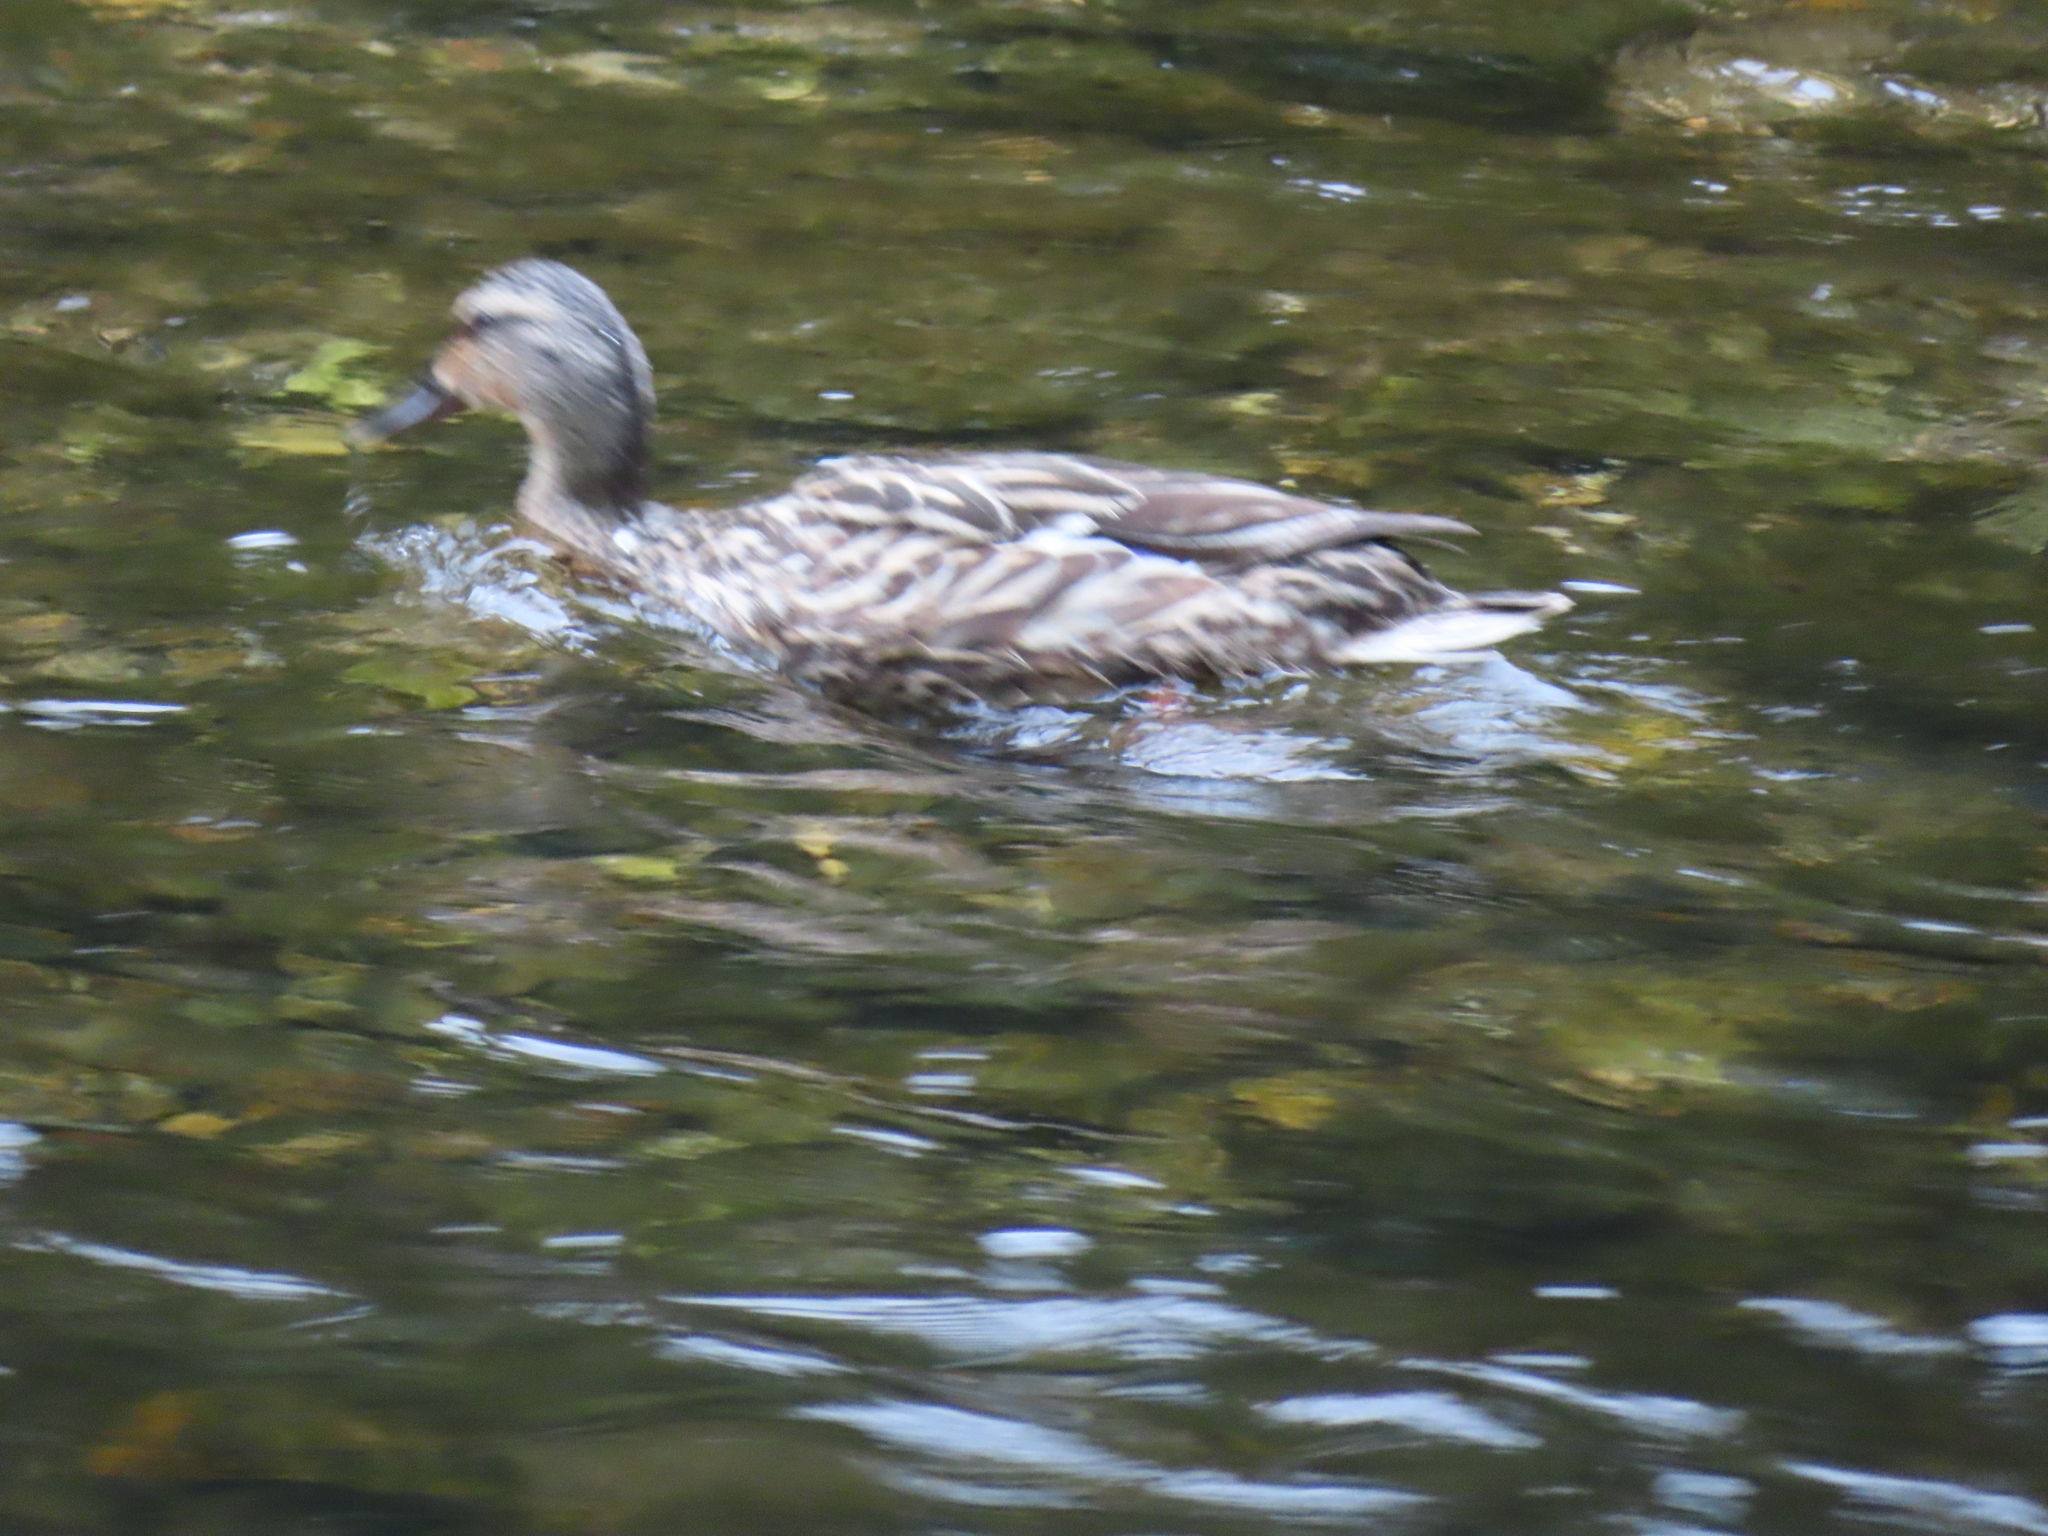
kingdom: Animalia
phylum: Chordata
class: Aves
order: Anseriformes
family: Anatidae
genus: Anas
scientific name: Anas platyrhynchos
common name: Mallard
